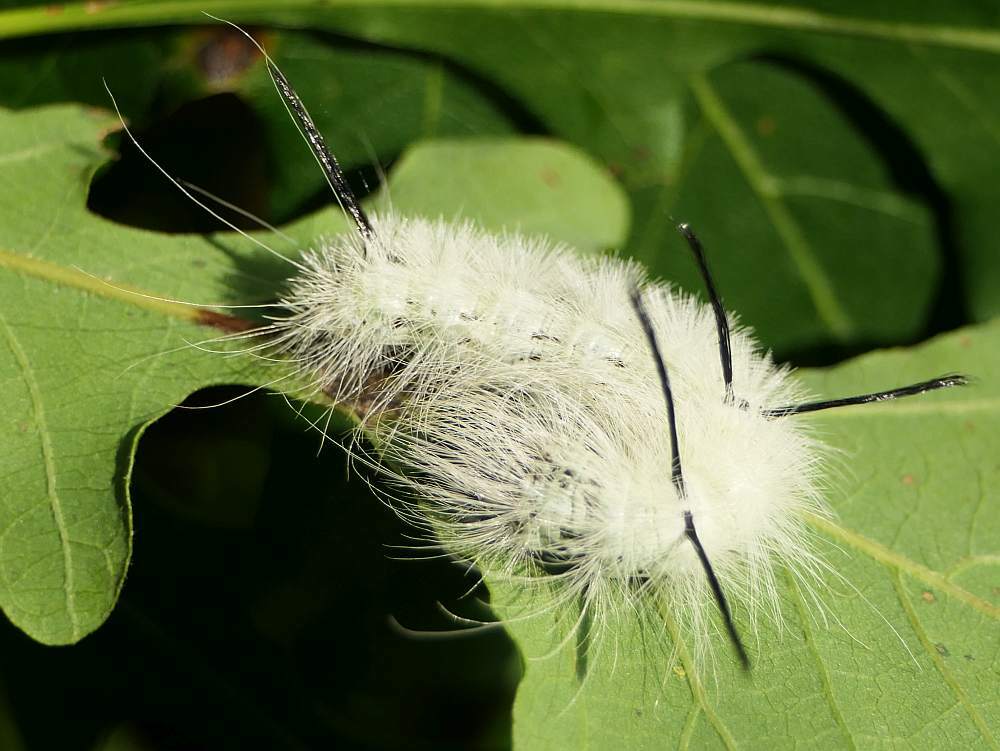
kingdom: Animalia
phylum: Arthropoda
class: Insecta
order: Lepidoptera
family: Noctuidae
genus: Acronicta
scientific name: Acronicta americana
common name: American dagger
